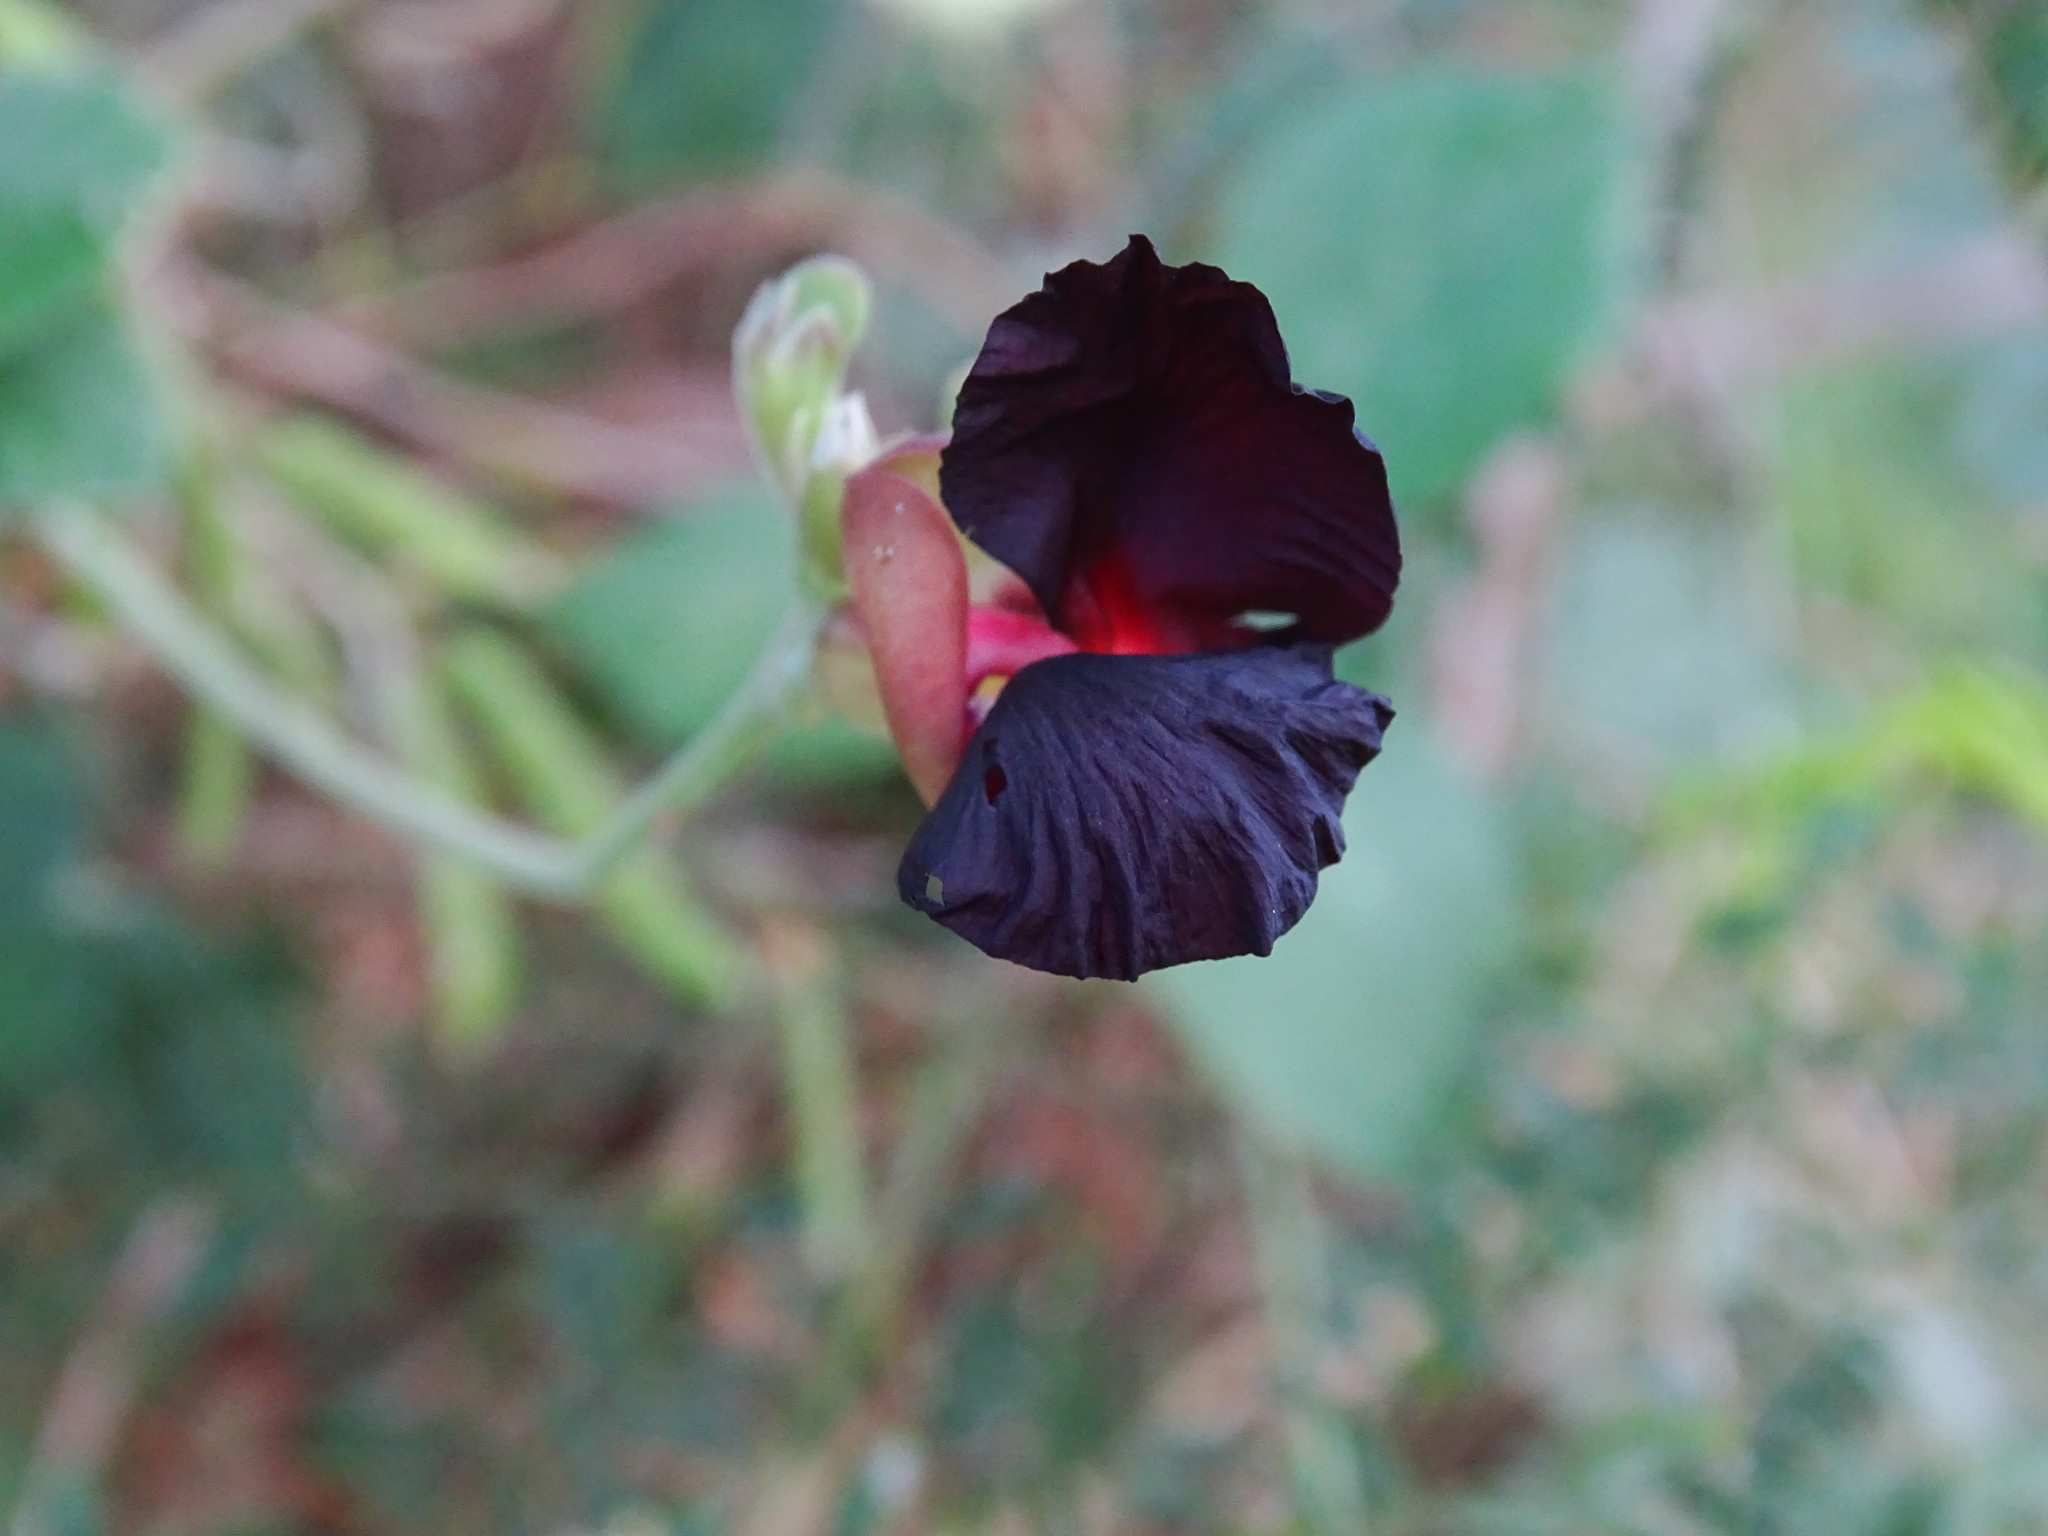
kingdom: Plantae
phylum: Tracheophyta
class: Magnoliopsida
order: Fabales
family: Fabaceae
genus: Macroptilium
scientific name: Macroptilium atropurpureum
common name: Purple bushbean
